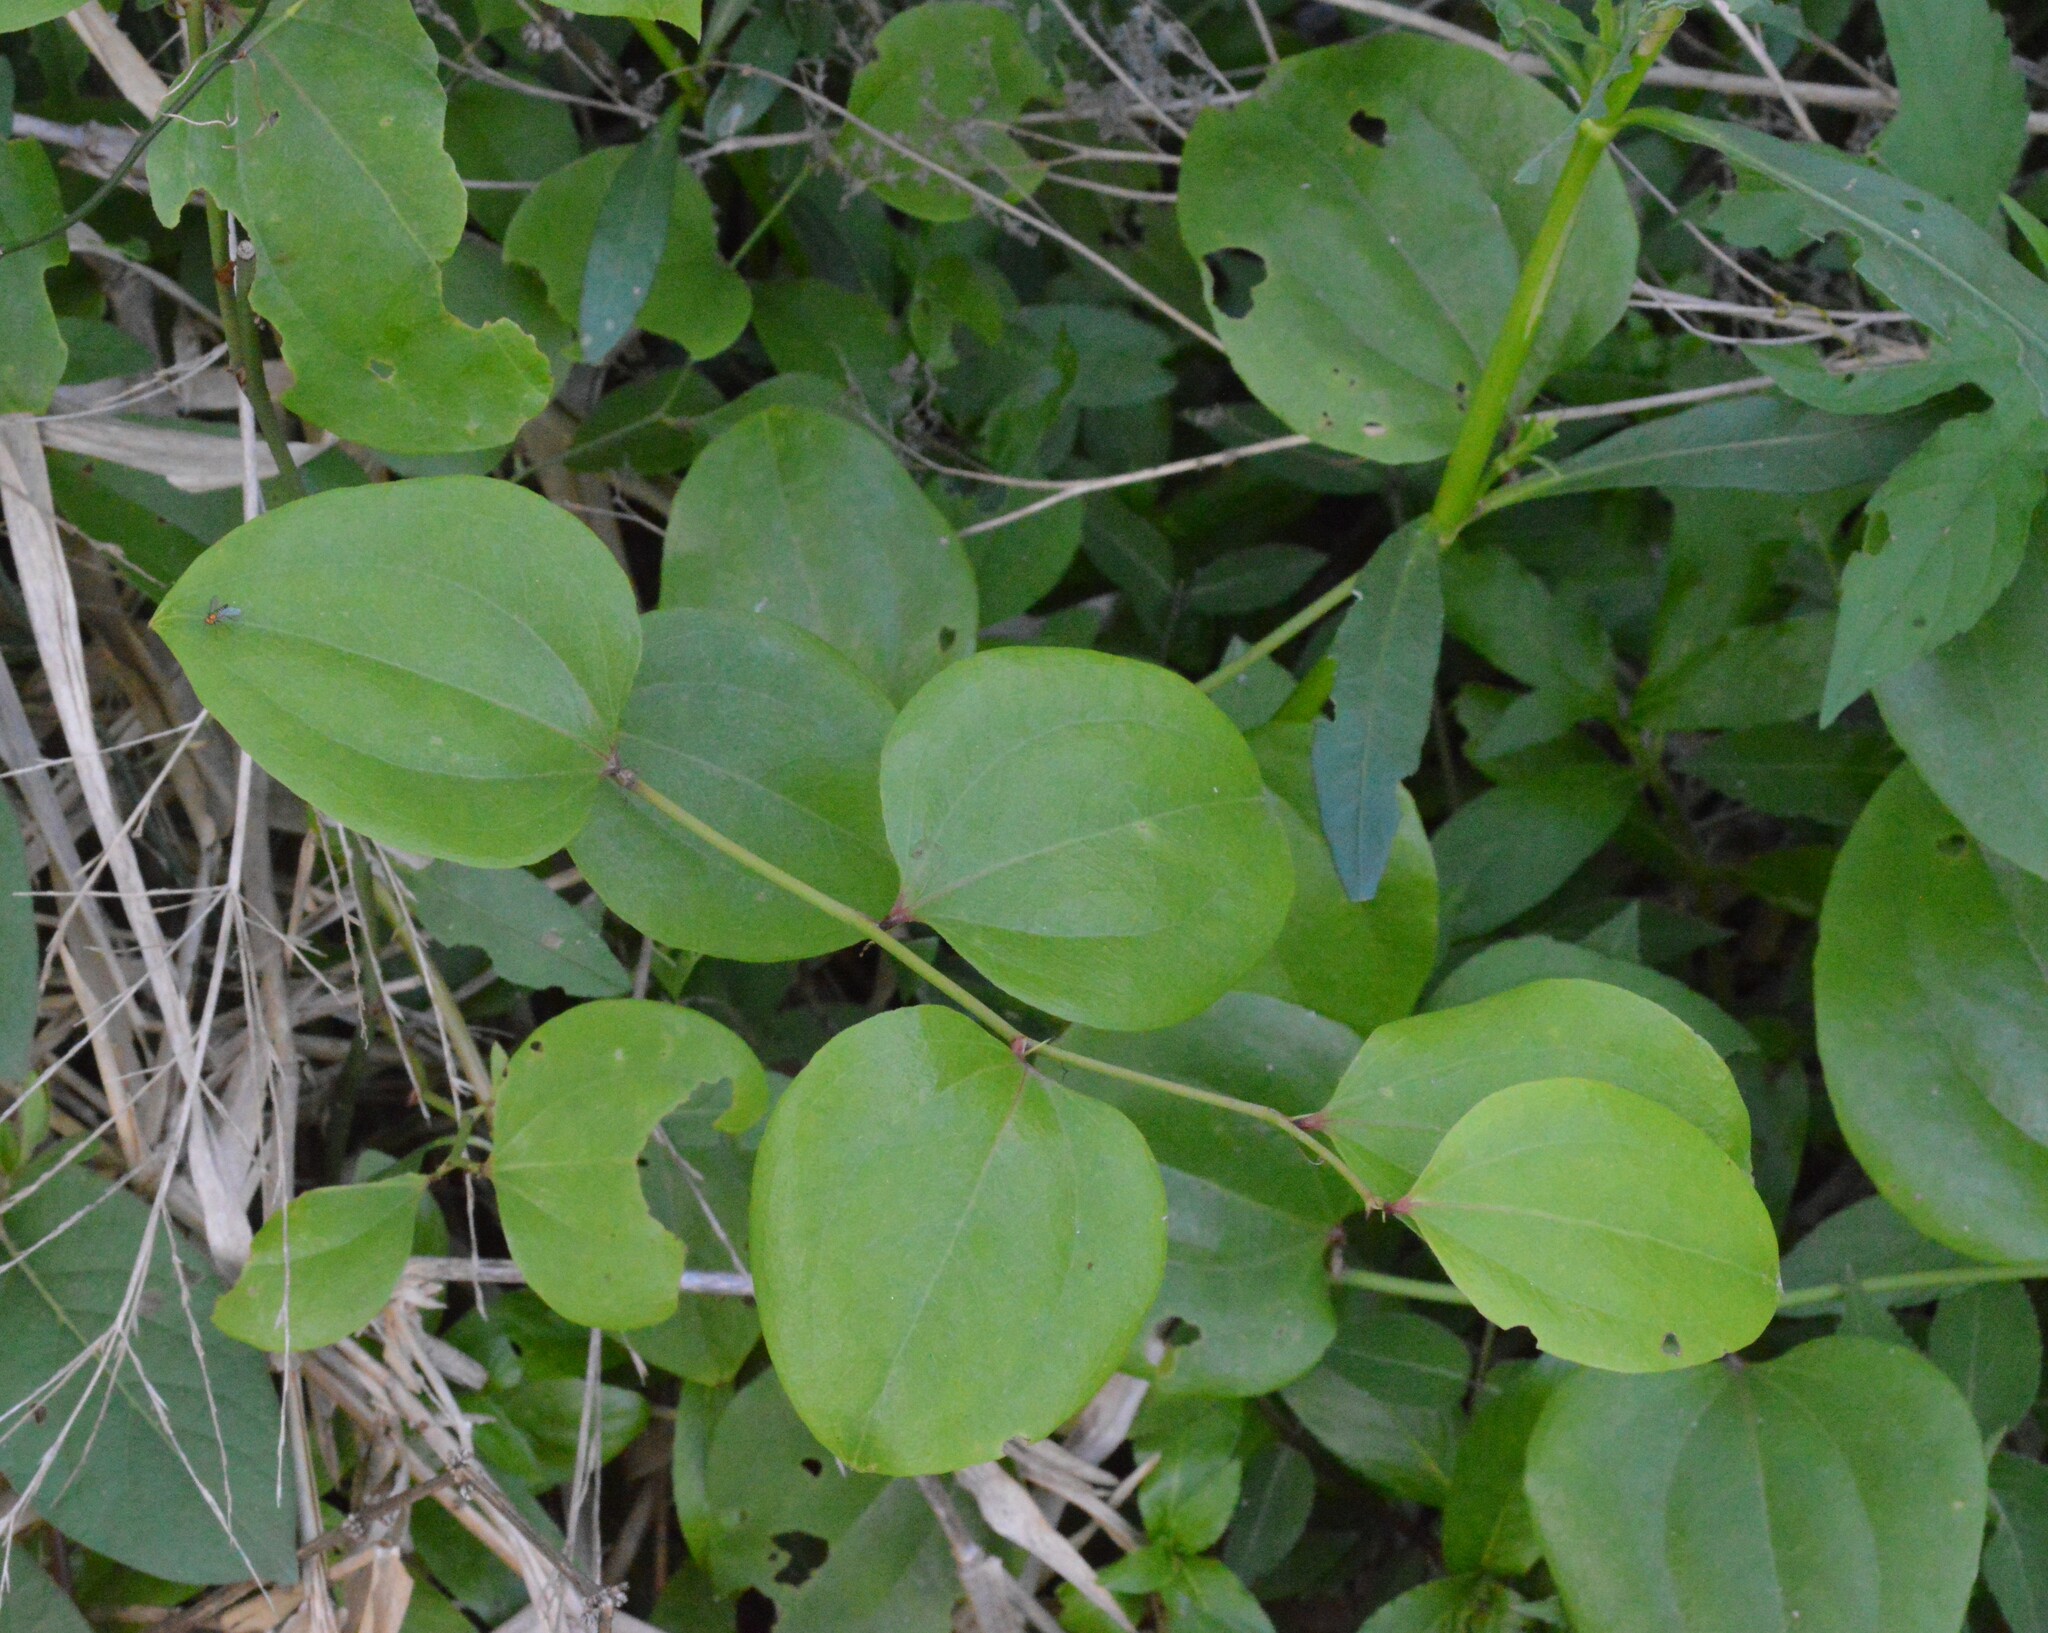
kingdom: Plantae
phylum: Tracheophyta
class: Liliopsida
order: Liliales
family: Smilacaceae
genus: Smilax
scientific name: Smilax rotundifolia
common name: Bullbriar
